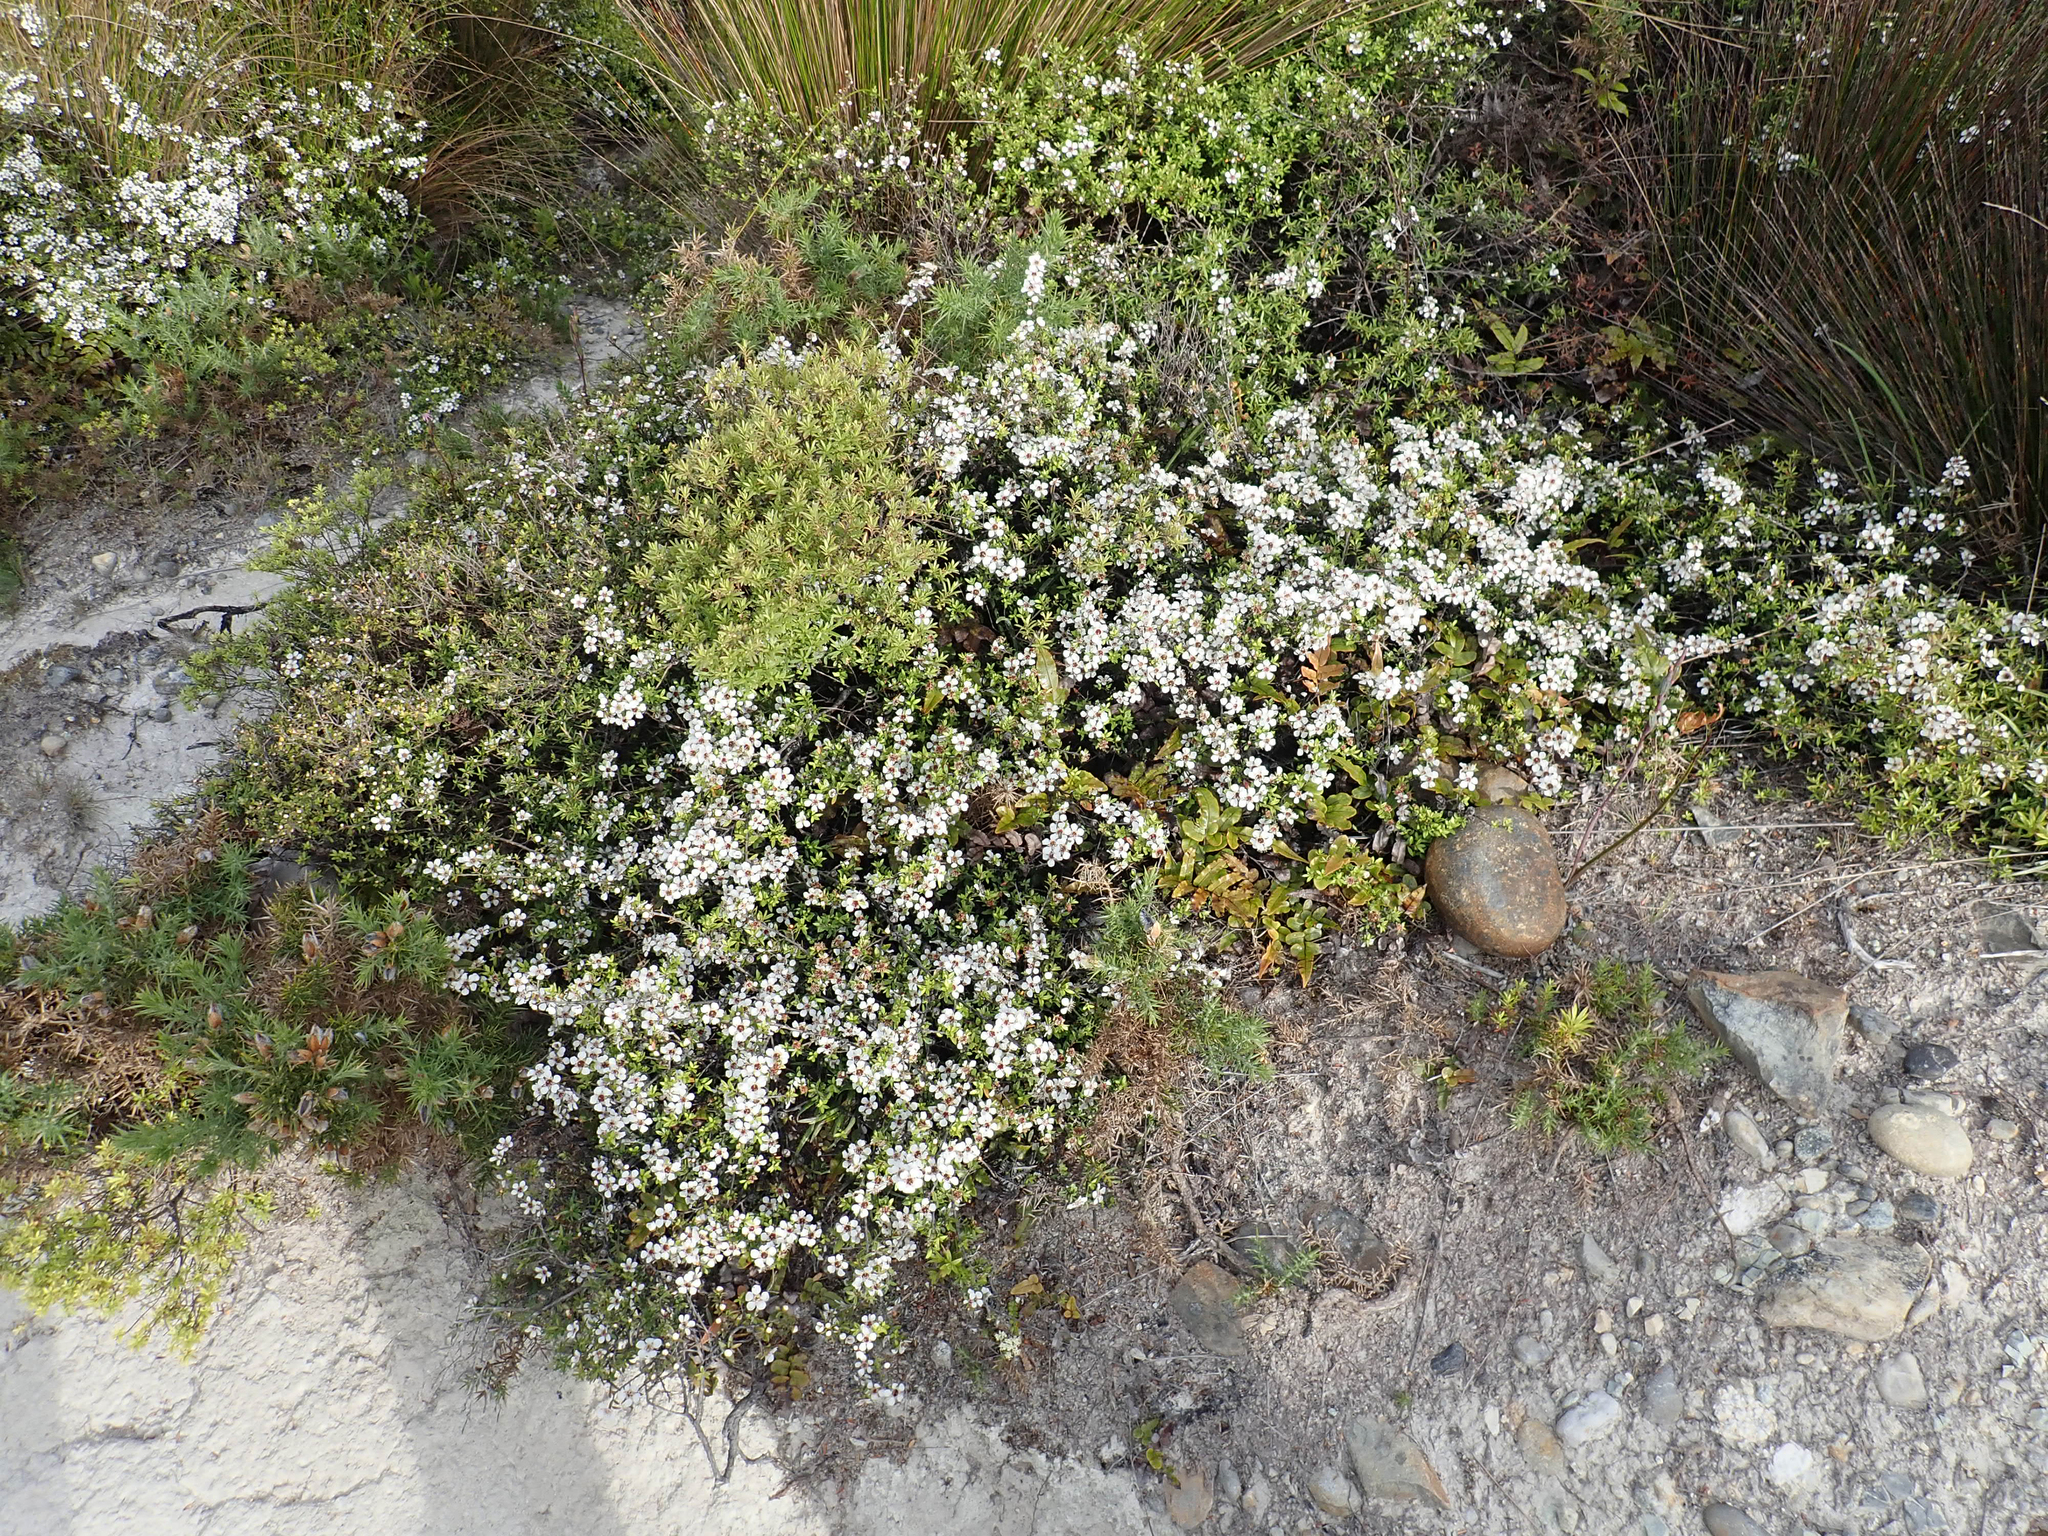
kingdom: Plantae
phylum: Tracheophyta
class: Magnoliopsida
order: Myrtales
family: Myrtaceae
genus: Leptospermum
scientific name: Leptospermum scoparium
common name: Broom tea-tree
